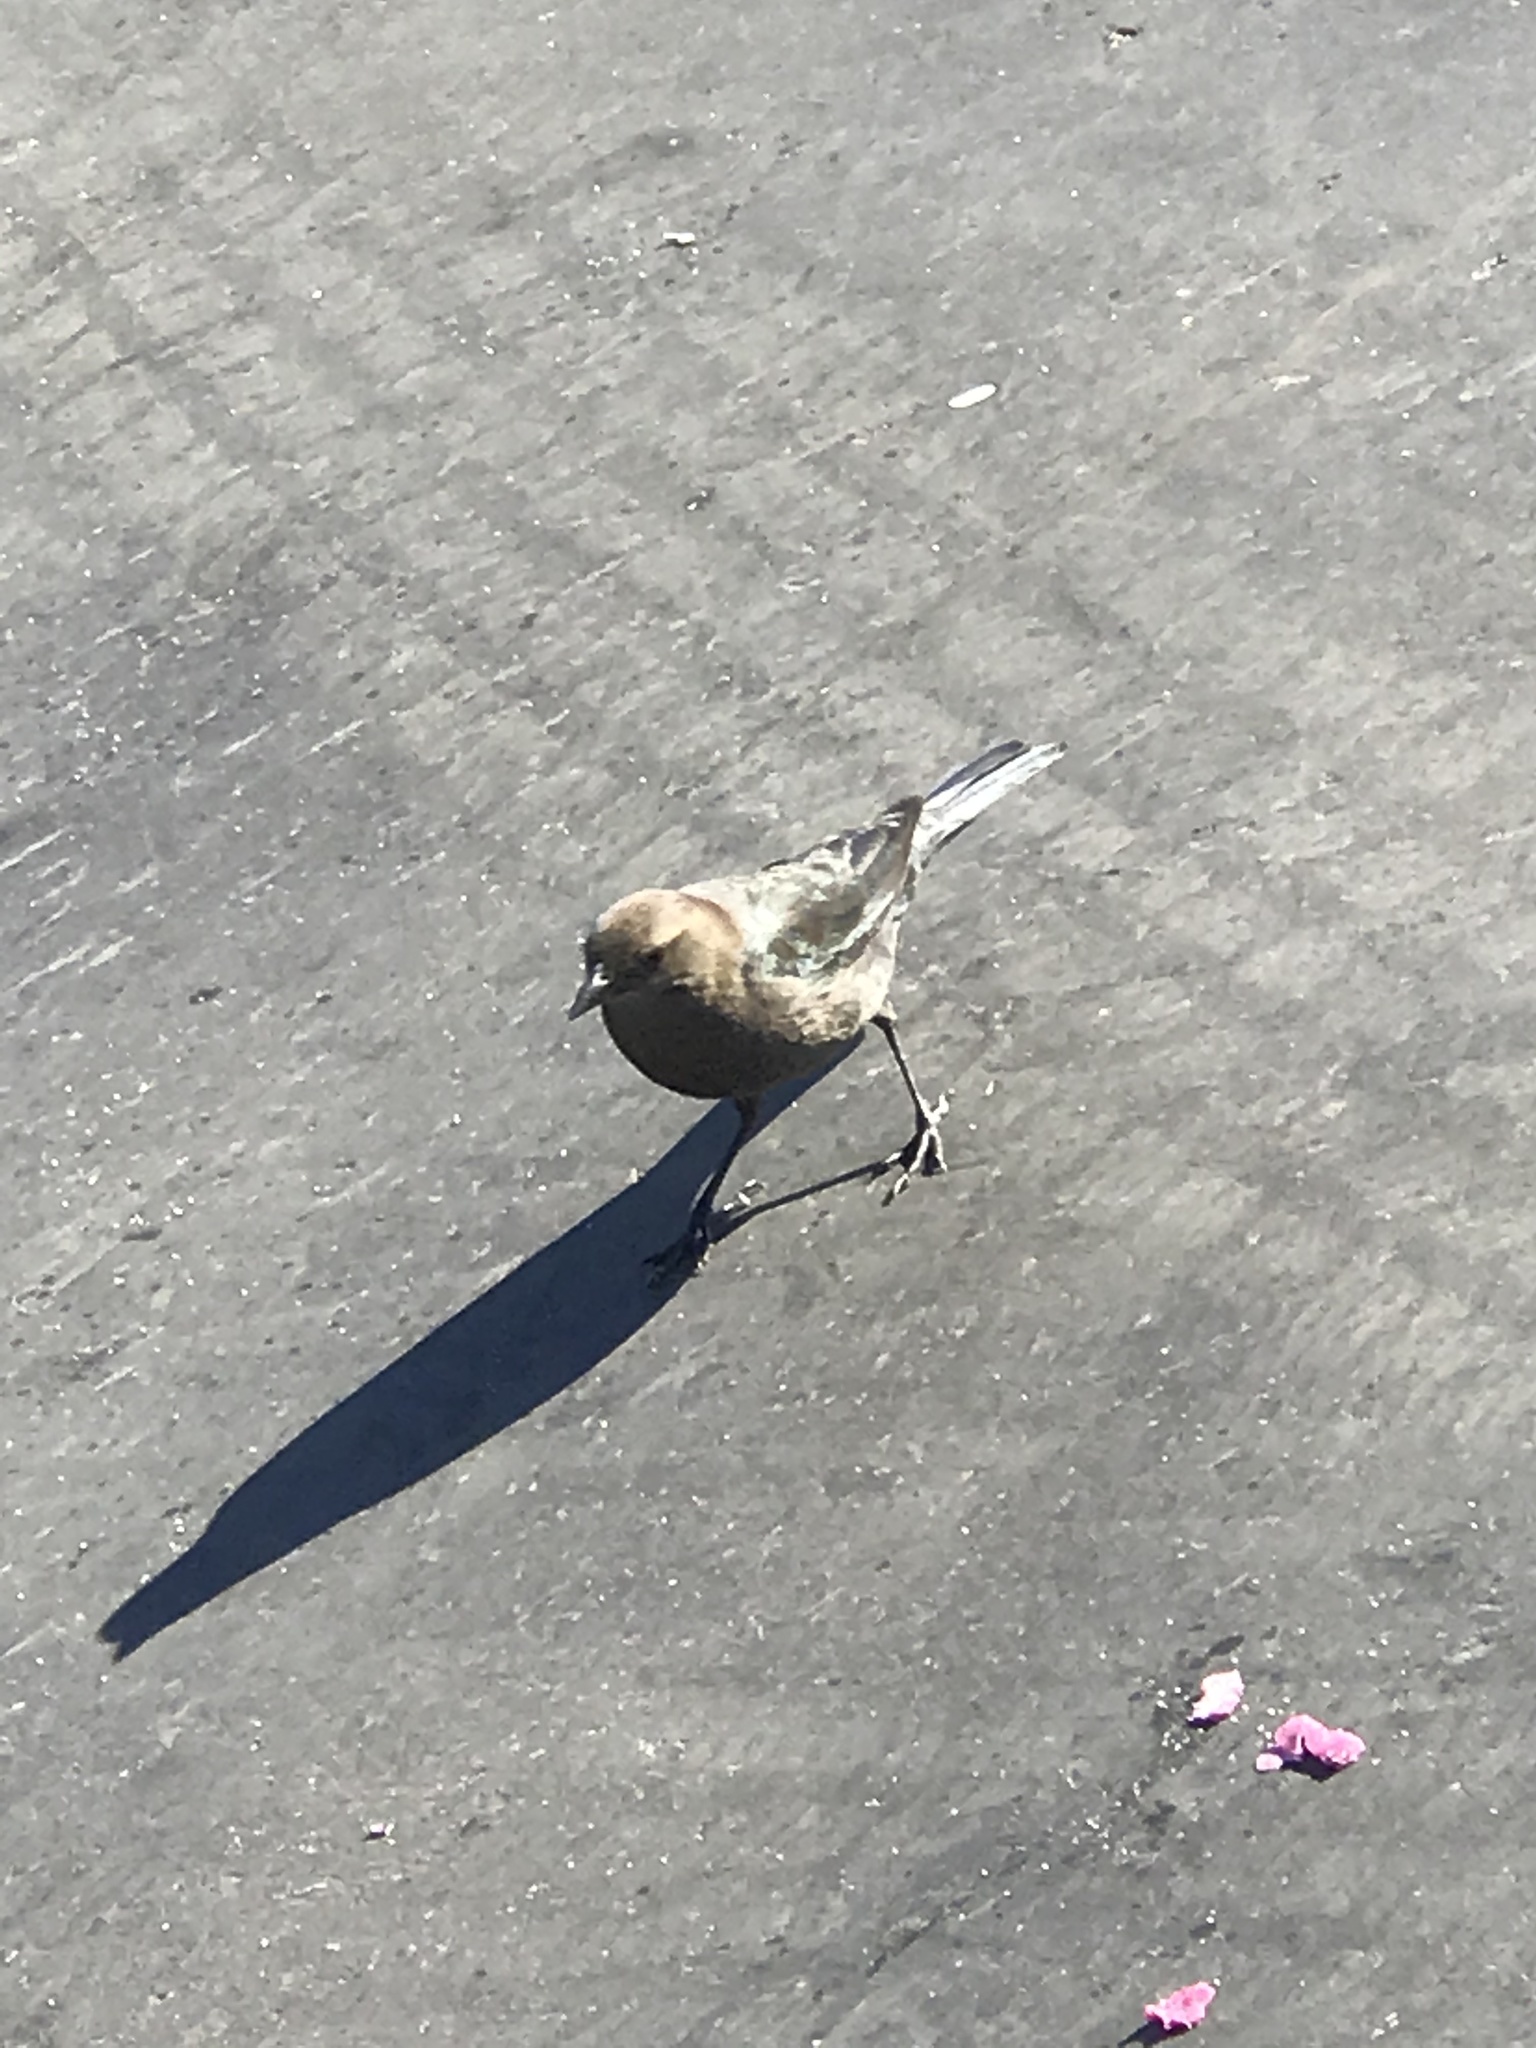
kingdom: Animalia
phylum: Chordata
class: Aves
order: Passeriformes
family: Icteridae
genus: Euphagus
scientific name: Euphagus cyanocephalus
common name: Brewer's blackbird
